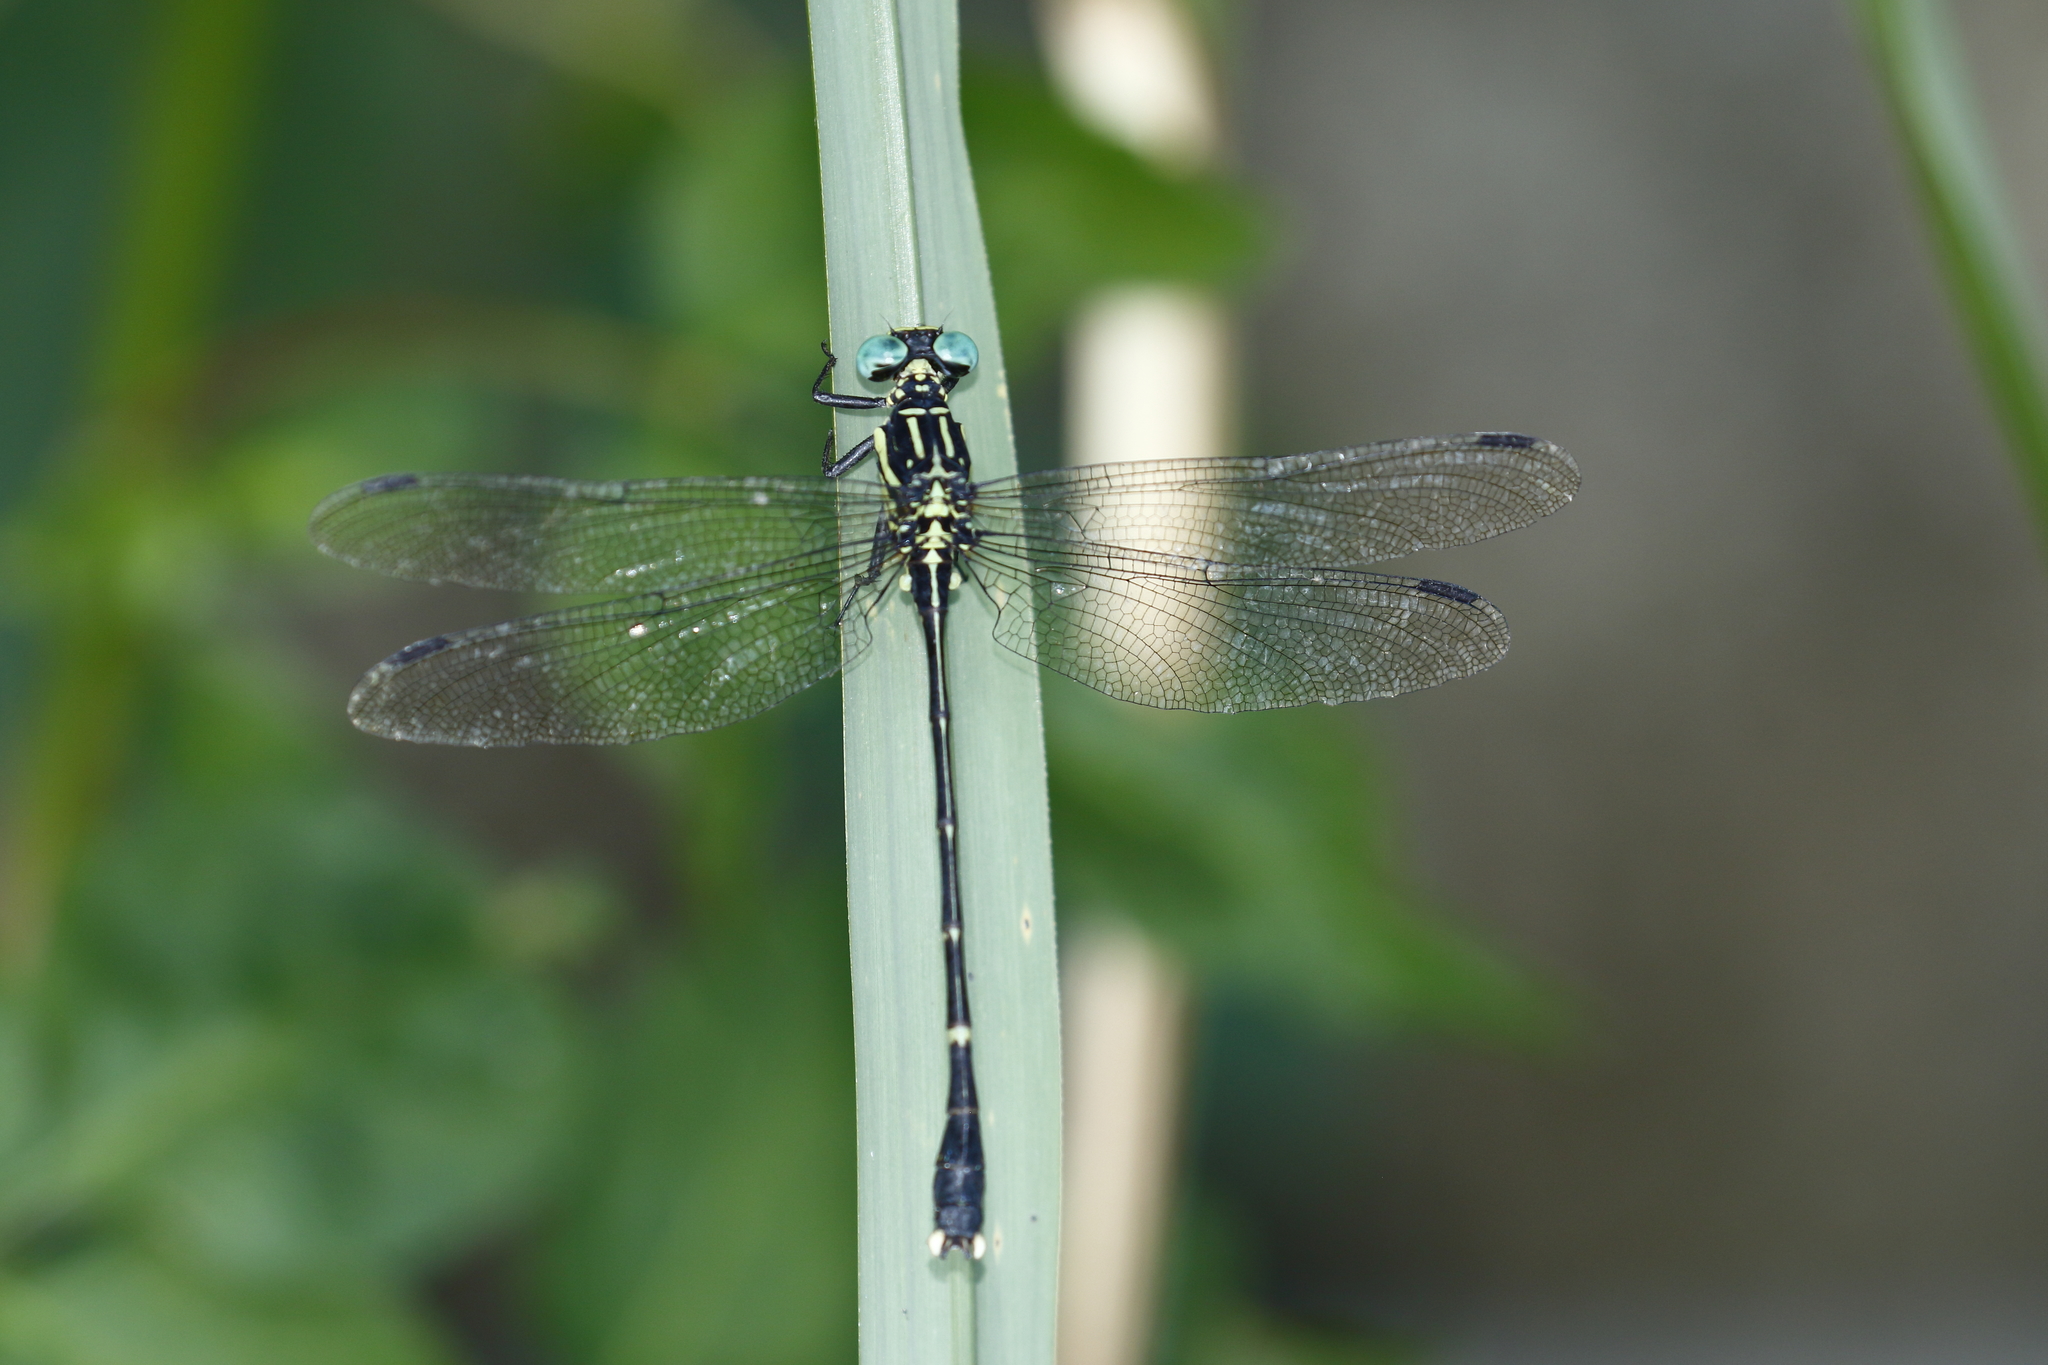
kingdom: Animalia
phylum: Arthropoda
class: Insecta
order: Odonata
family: Gomphidae
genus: Leptogomphus
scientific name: Leptogomphus sauteri
